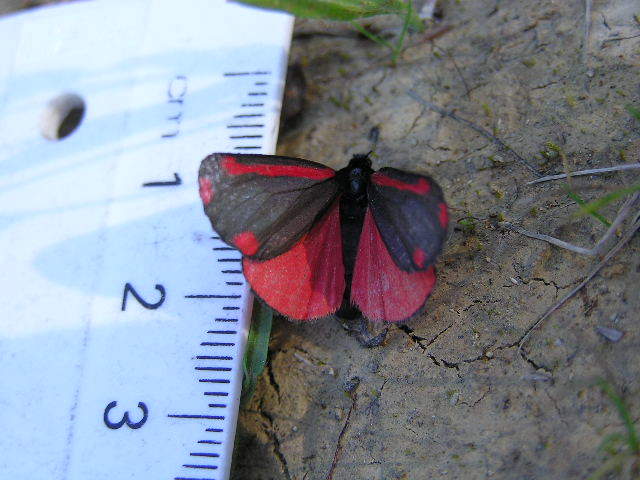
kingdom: Animalia
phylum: Arthropoda
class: Insecta
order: Lepidoptera
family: Erebidae
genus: Tyria
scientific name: Tyria jacobaeae
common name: Cinnabar
